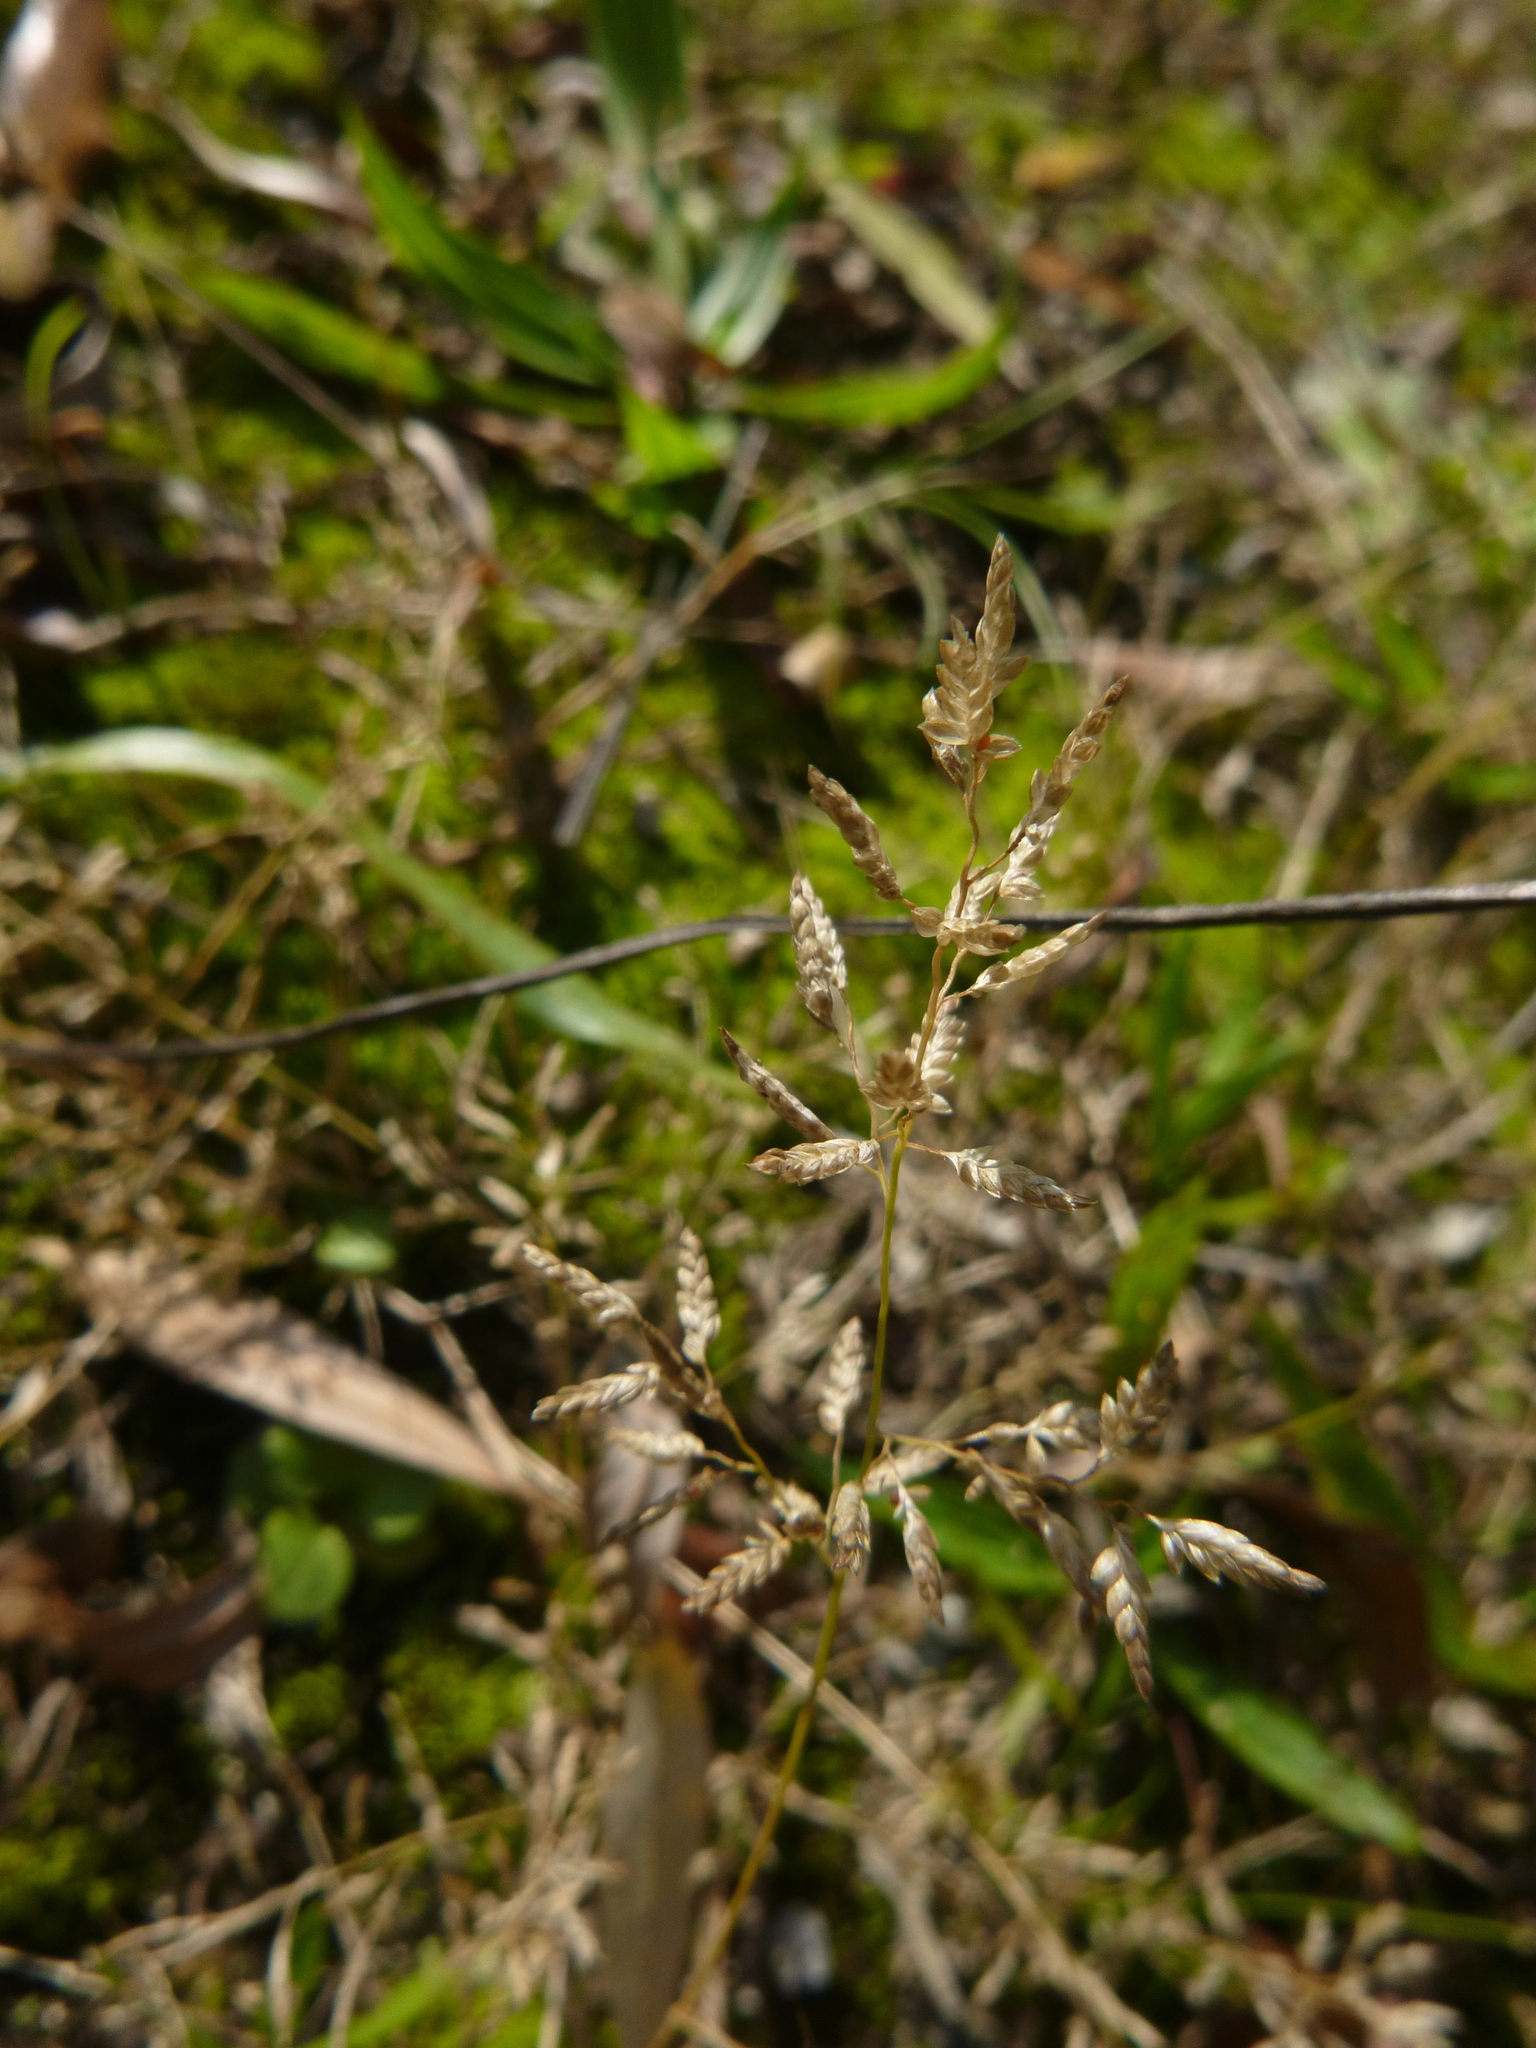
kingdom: Plantae
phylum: Tracheophyta
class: Liliopsida
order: Poales
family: Poaceae
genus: Eragrostis
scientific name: Eragrostis minor
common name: Small love-grass
